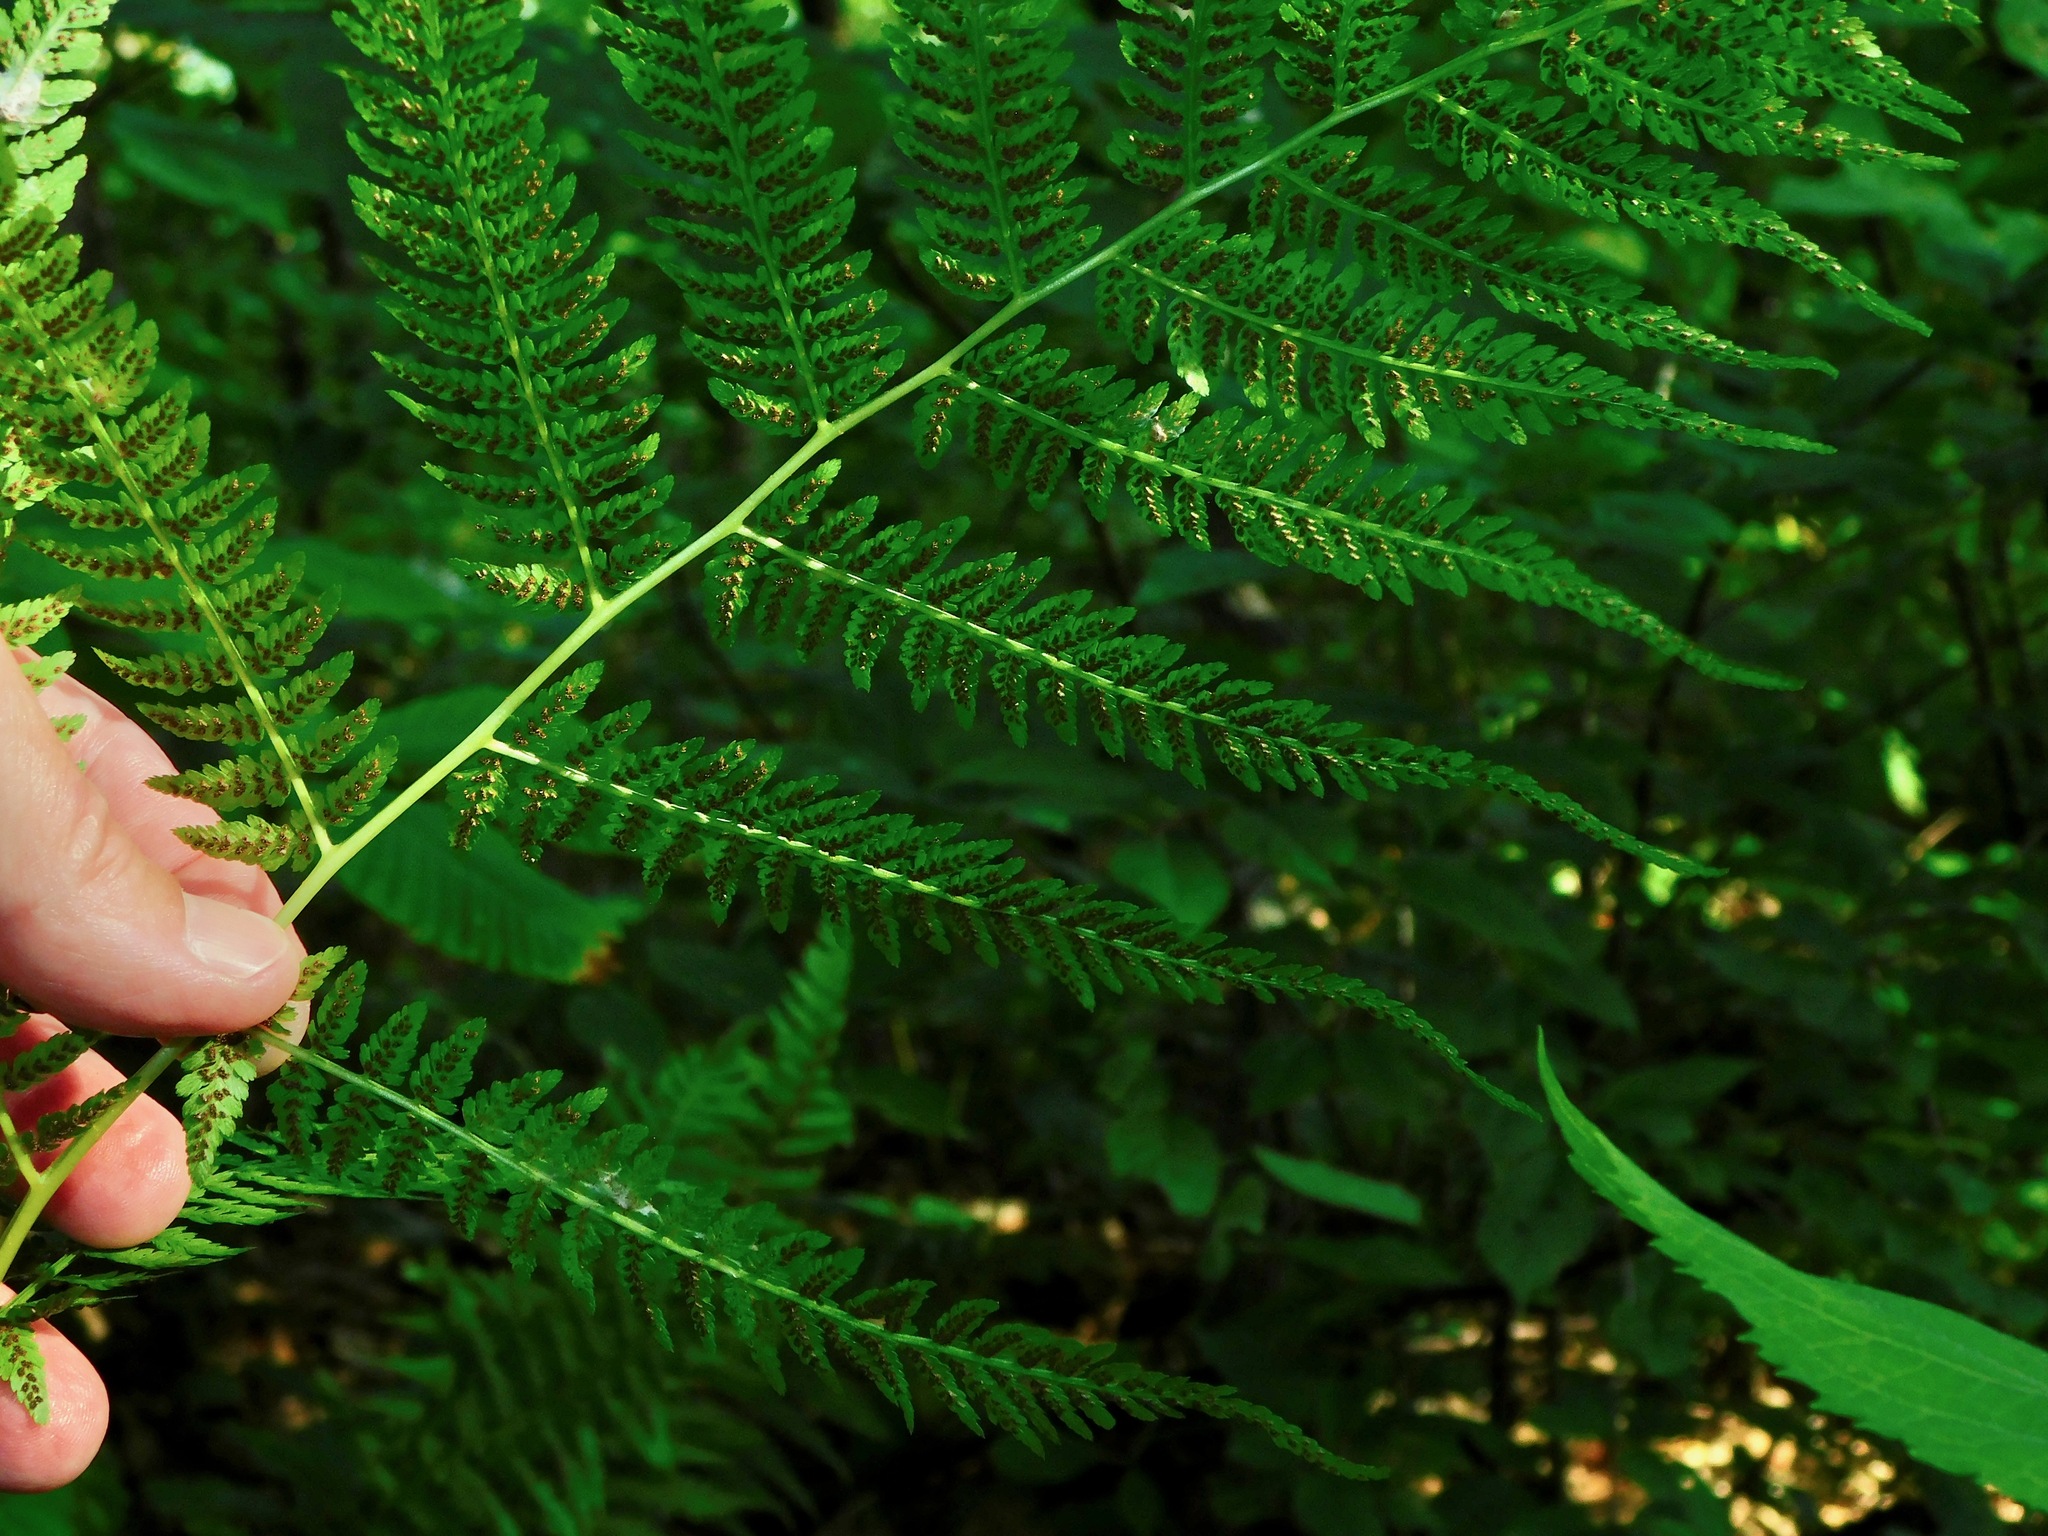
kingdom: Plantae
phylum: Tracheophyta
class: Polypodiopsida
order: Polypodiales
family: Athyriaceae
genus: Athyrium
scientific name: Athyrium asplenioides
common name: Southern lady fern
